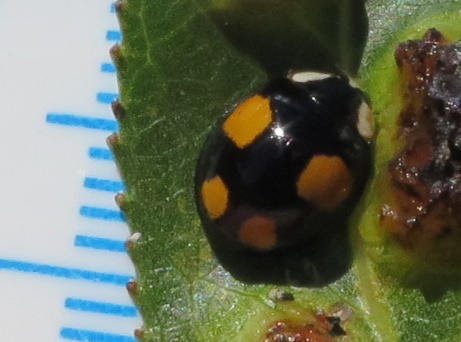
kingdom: Animalia
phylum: Arthropoda
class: Insecta
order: Coleoptera
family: Coccinellidae
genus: Harmonia
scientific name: Harmonia axyridis
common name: Harlequin ladybird
